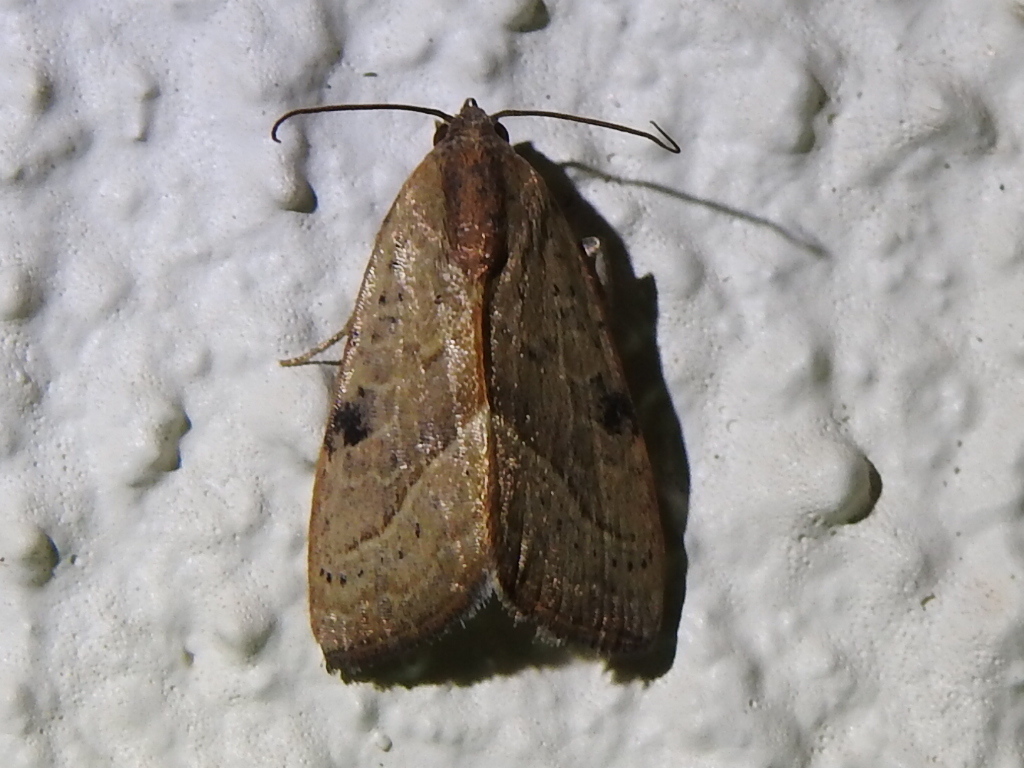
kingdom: Animalia
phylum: Arthropoda
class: Insecta
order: Lepidoptera
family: Noctuidae
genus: Galgula
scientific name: Galgula partita
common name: Wedgeling
